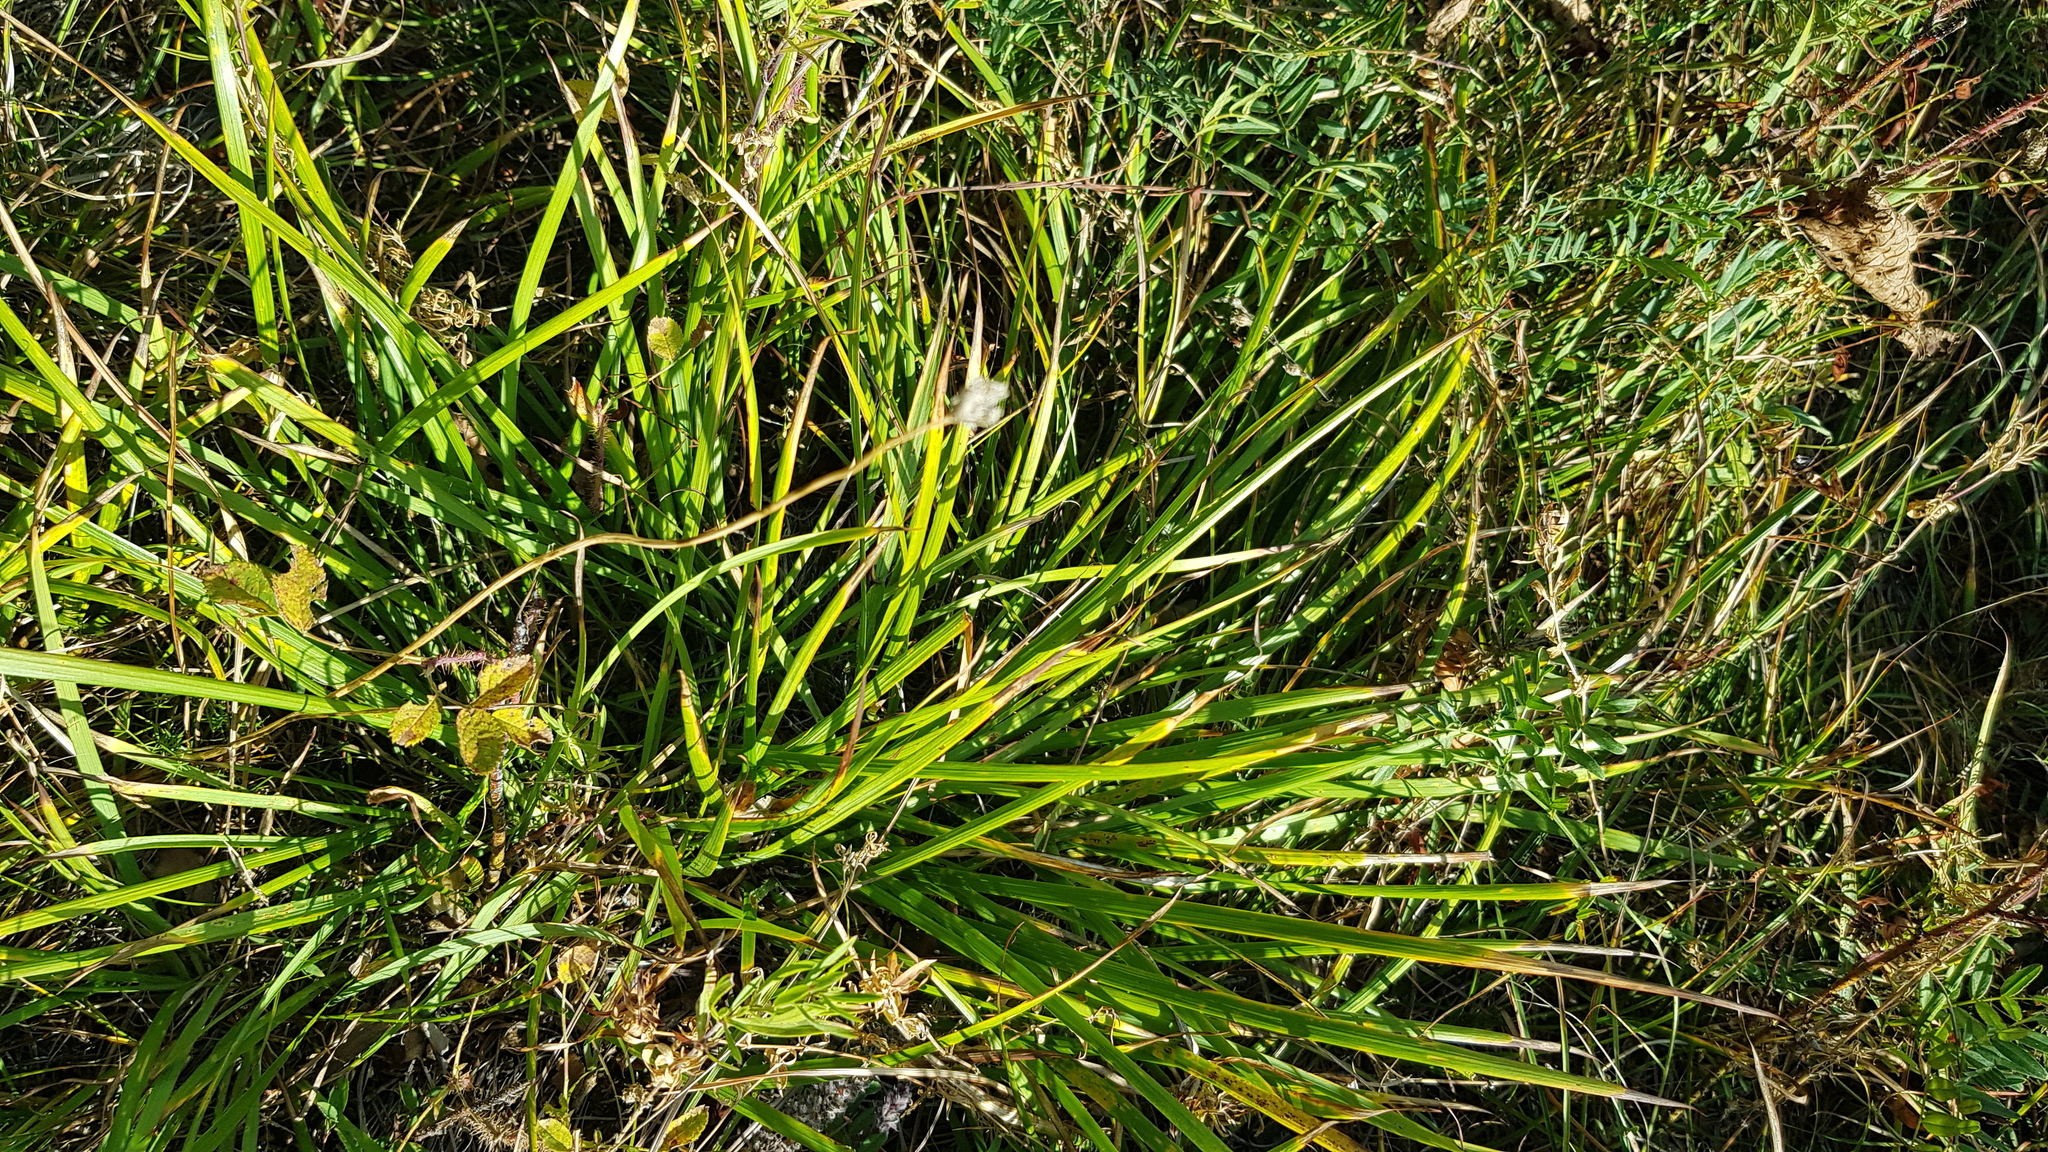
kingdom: Plantae
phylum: Tracheophyta
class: Liliopsida
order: Acorales
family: Acoraceae
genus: Acorus
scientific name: Acorus calamus
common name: Sweet-flag
